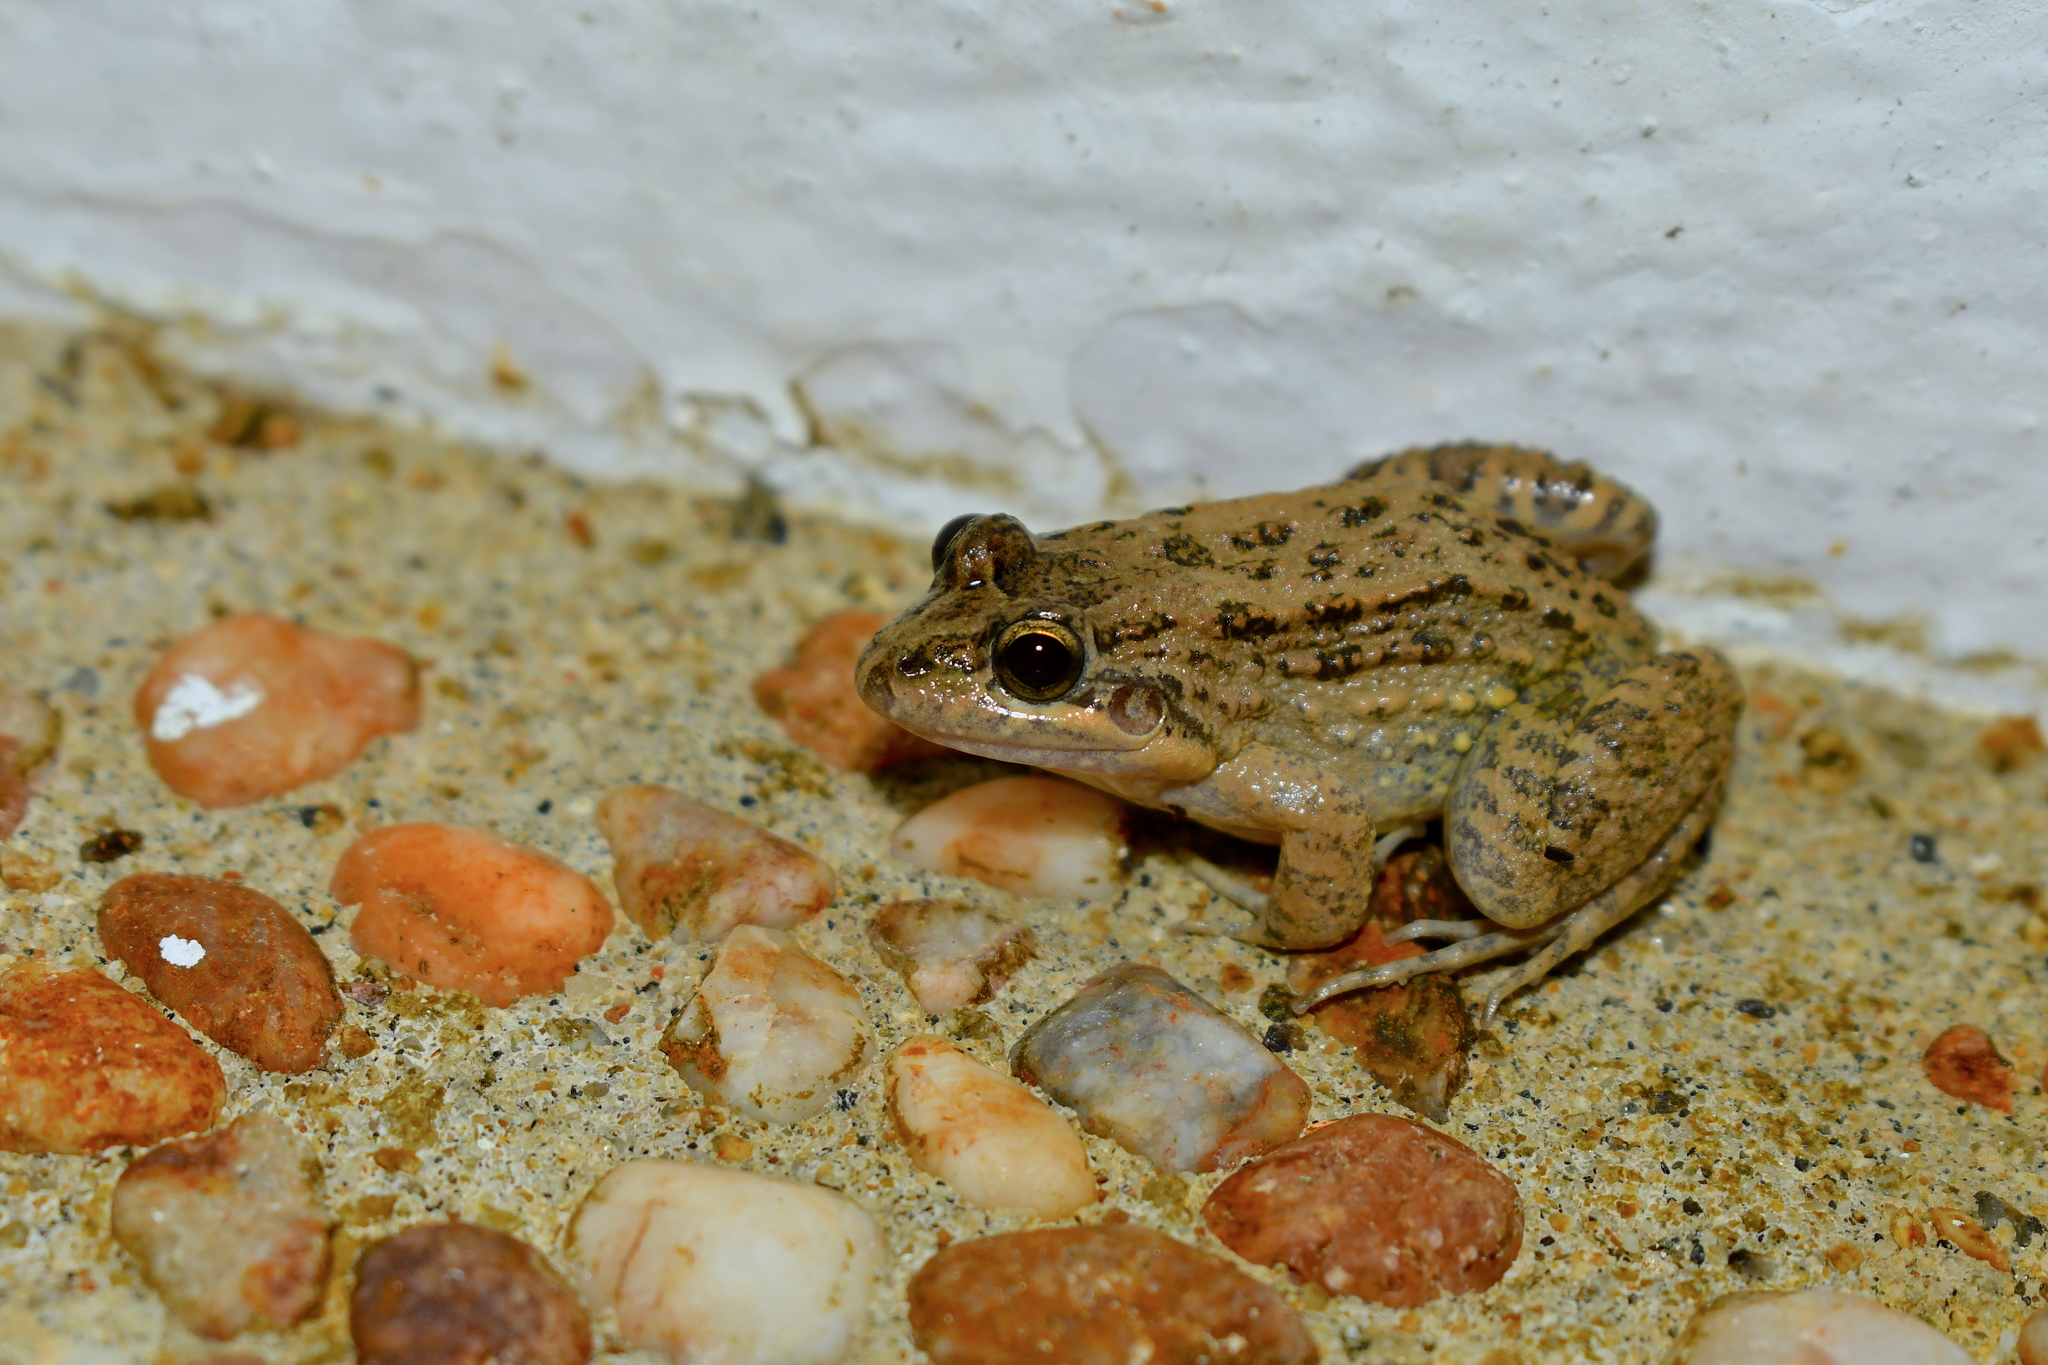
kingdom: Animalia
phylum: Chordata
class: Amphibia
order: Anura
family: Leptodactylidae
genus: Leptodactylus
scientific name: Leptodactylus melanonotus
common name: Fringe-toed foamfrog
